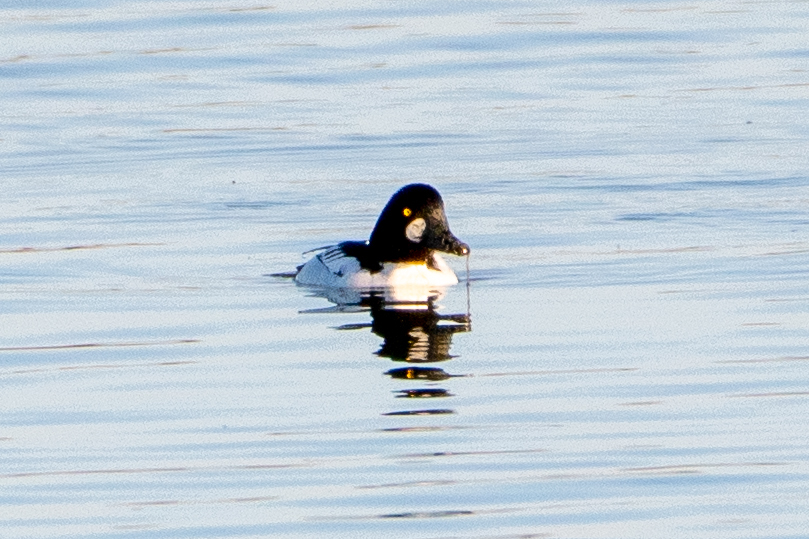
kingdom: Animalia
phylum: Chordata
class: Aves
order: Anseriformes
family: Anatidae
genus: Bucephala
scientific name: Bucephala clangula
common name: Common goldeneye
